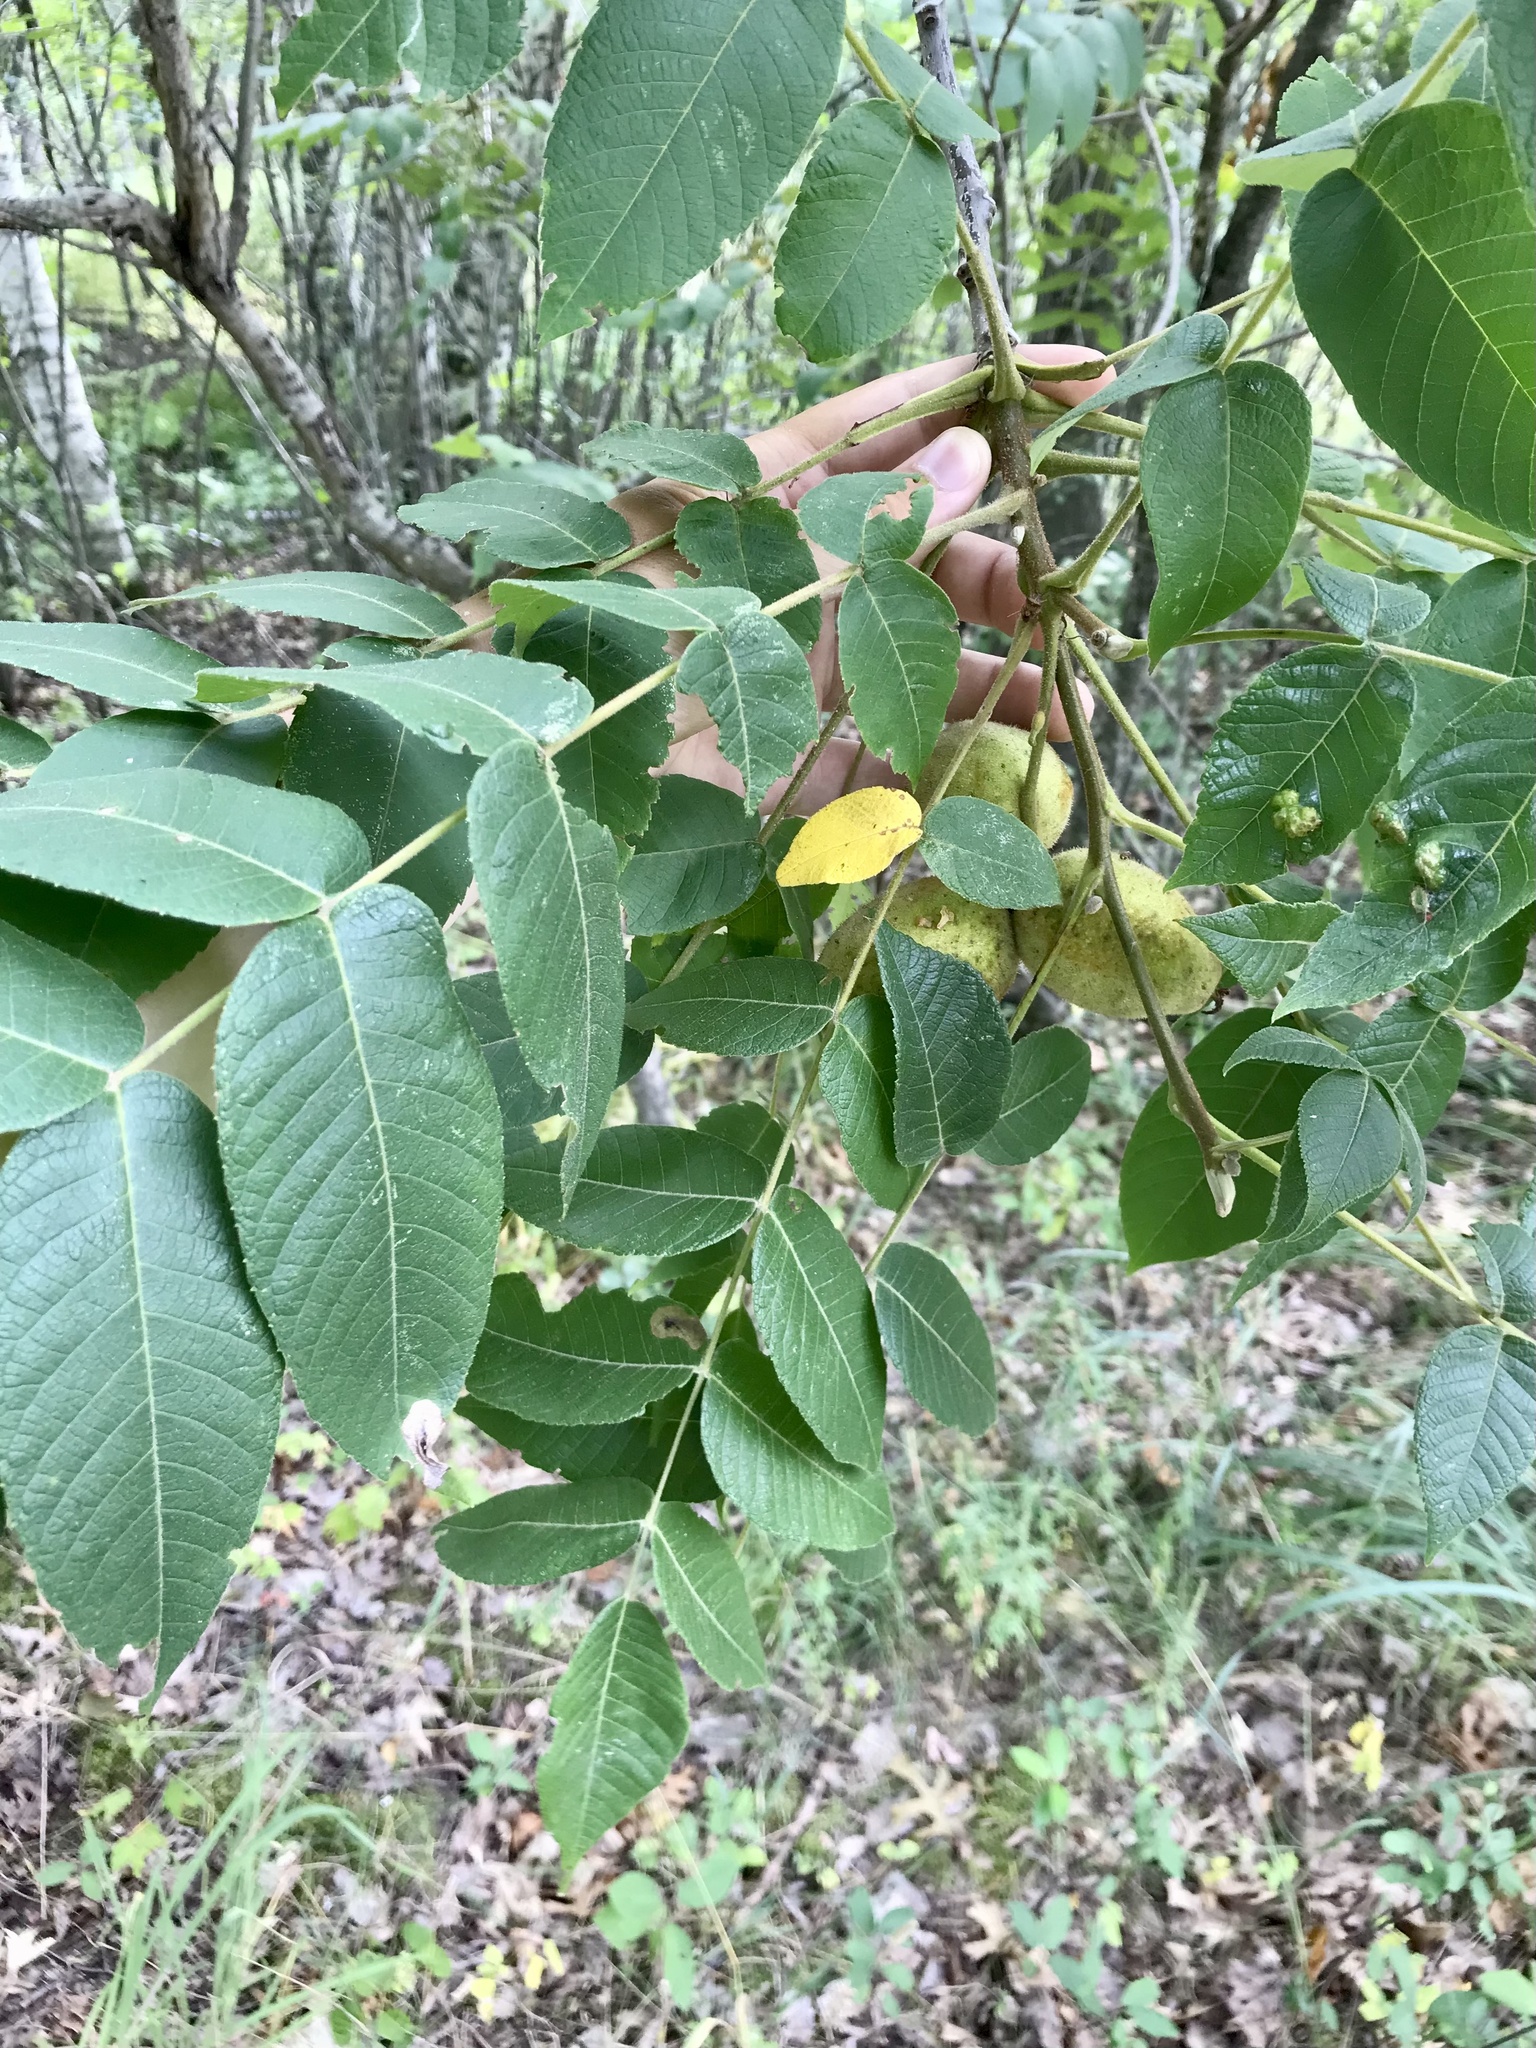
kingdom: Plantae
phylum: Tracheophyta
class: Magnoliopsida
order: Fagales
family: Juglandaceae
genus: Juglans
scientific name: Juglans cinerea
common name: Butternut
